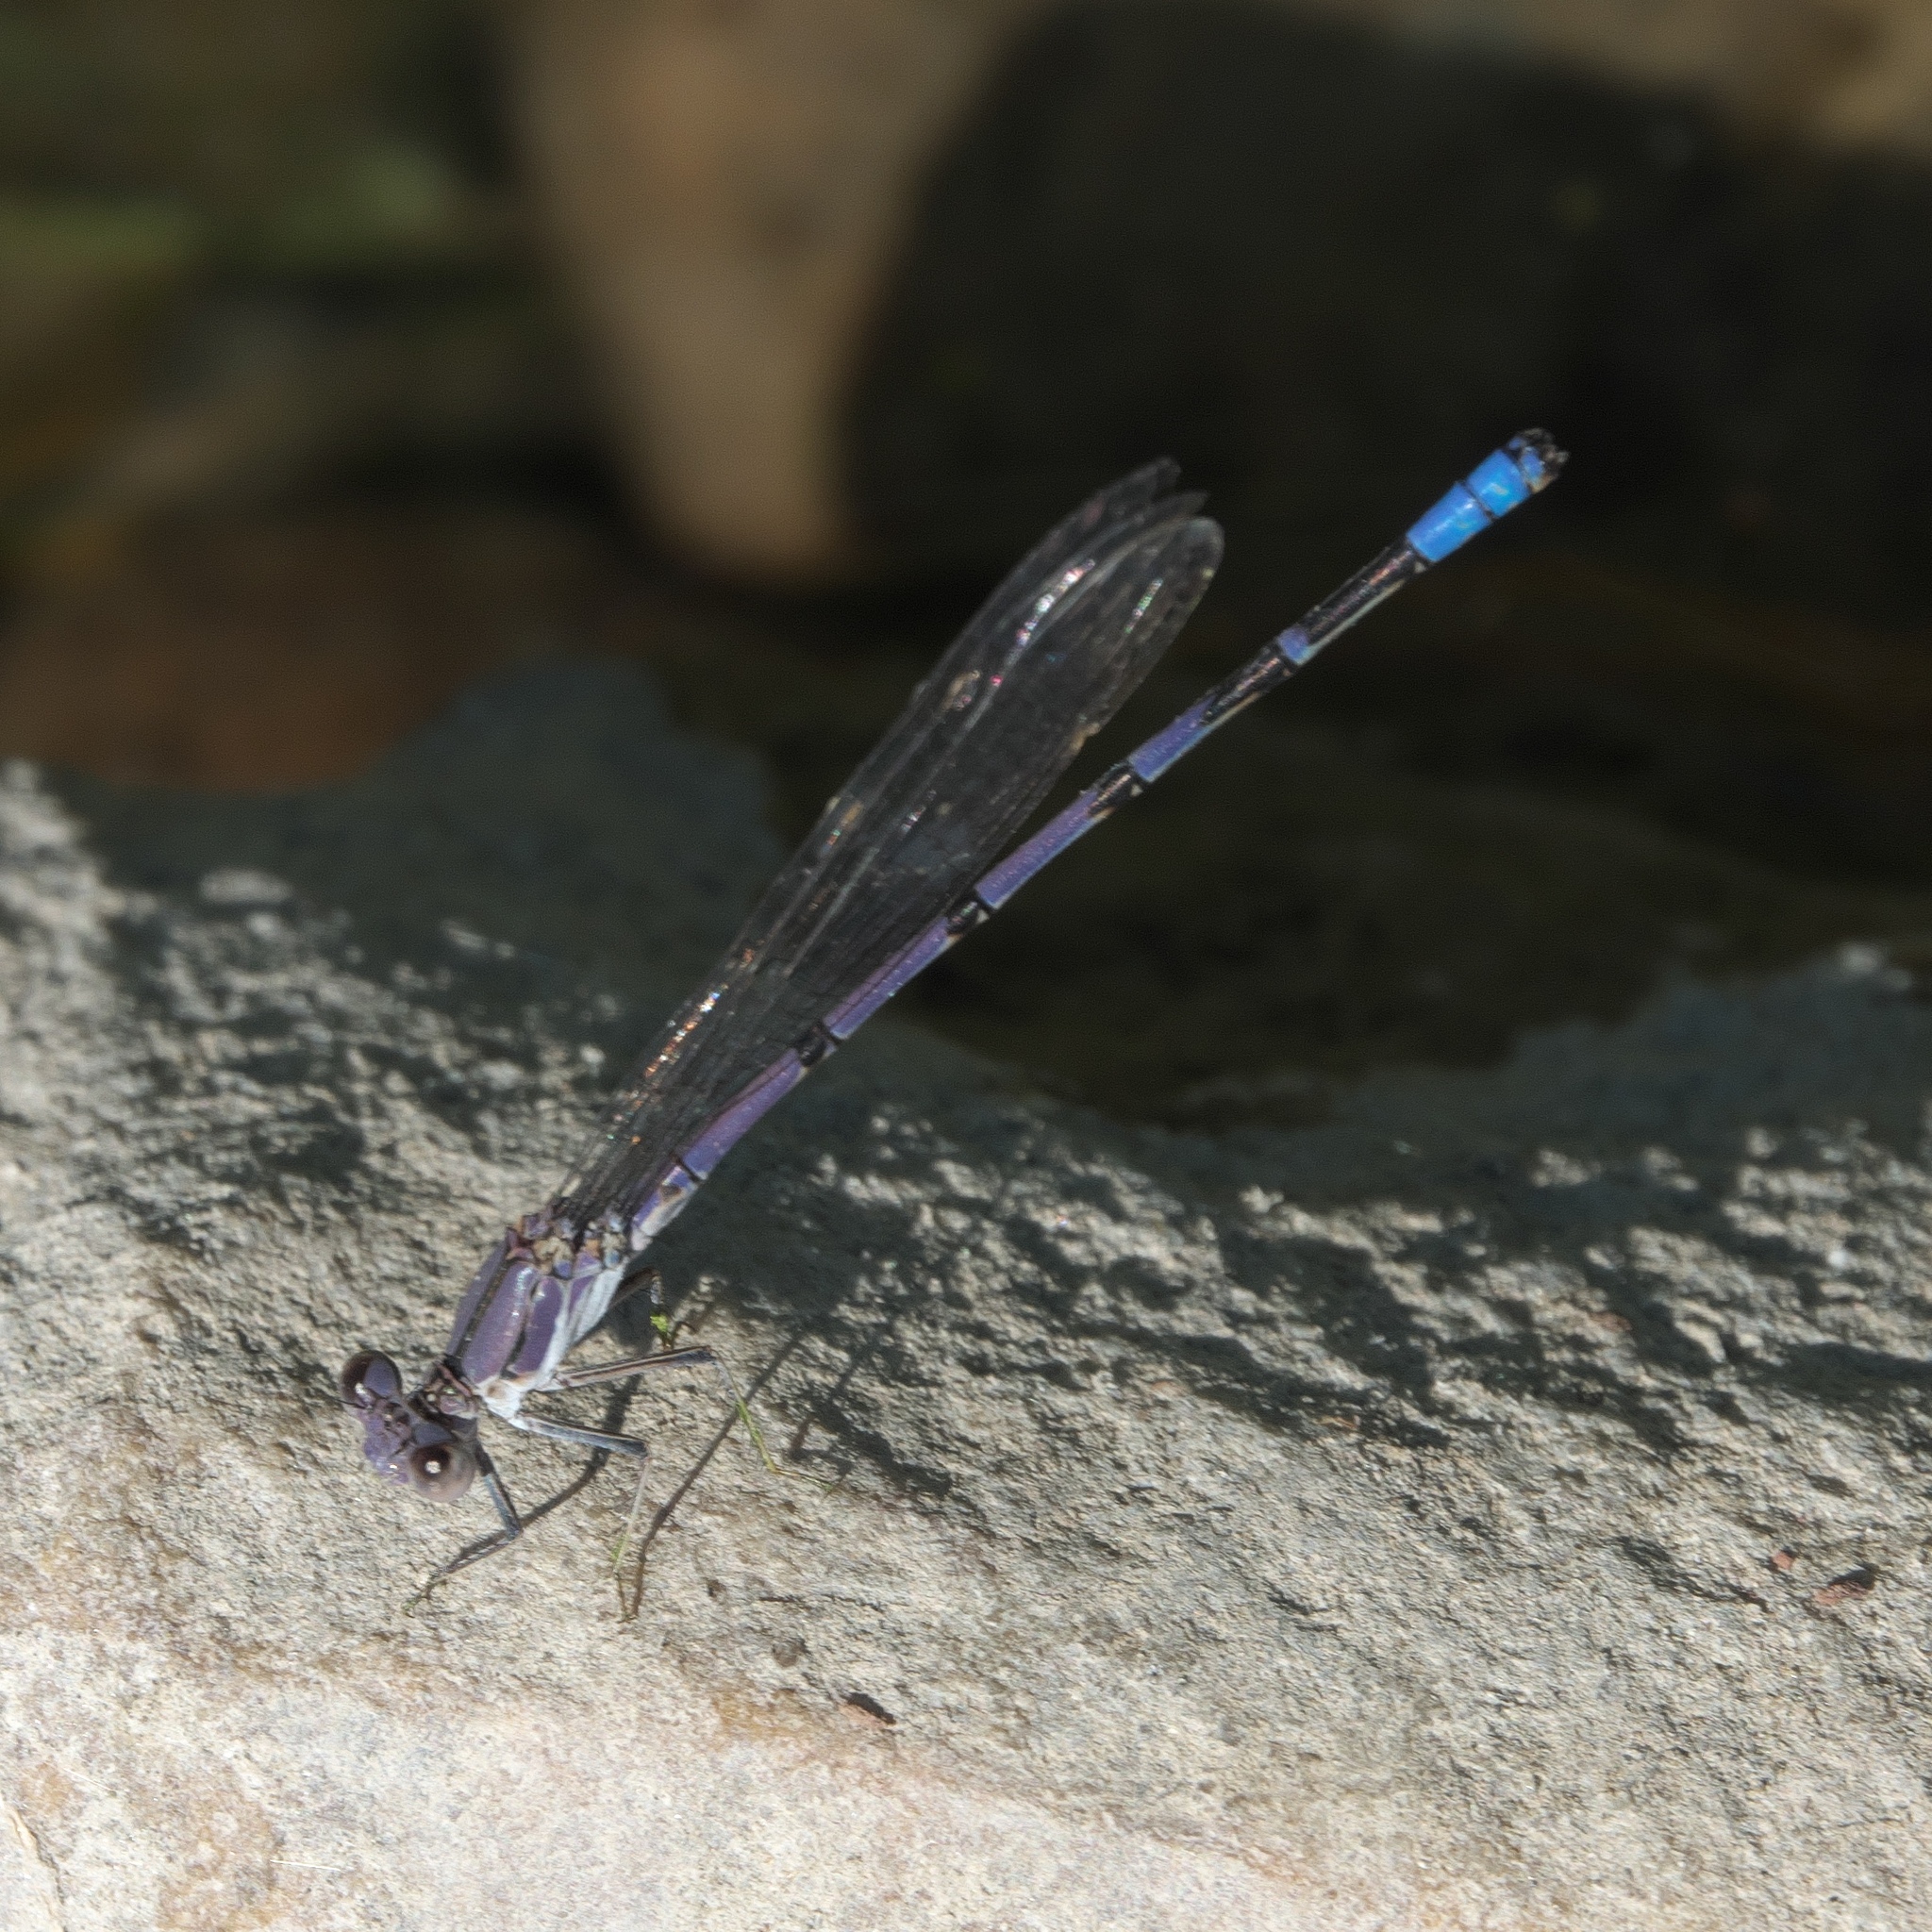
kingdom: Animalia
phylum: Arthropoda
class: Insecta
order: Odonata
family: Coenagrionidae
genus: Argia
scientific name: Argia emma
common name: Emma's dancer
